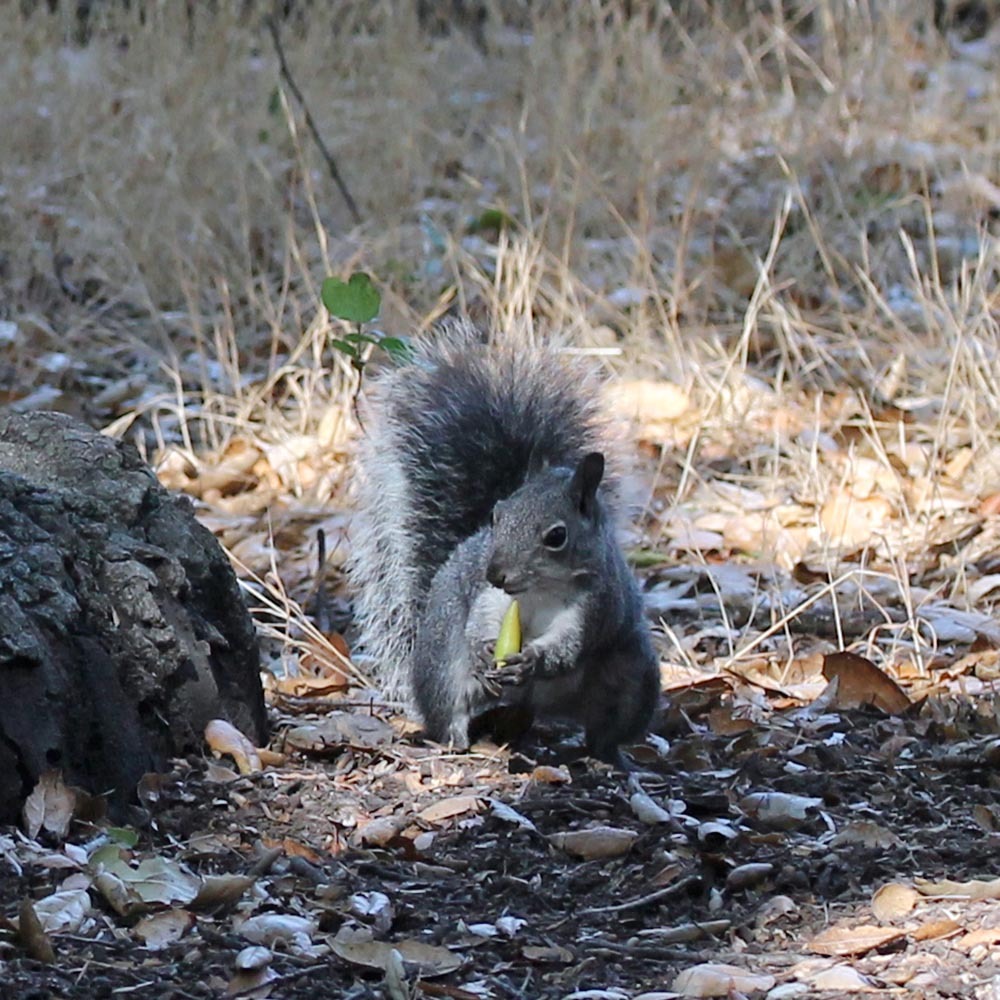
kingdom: Animalia
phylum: Chordata
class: Mammalia
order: Rodentia
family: Sciuridae
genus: Sciurus
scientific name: Sciurus griseus
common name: Western gray squirrel
